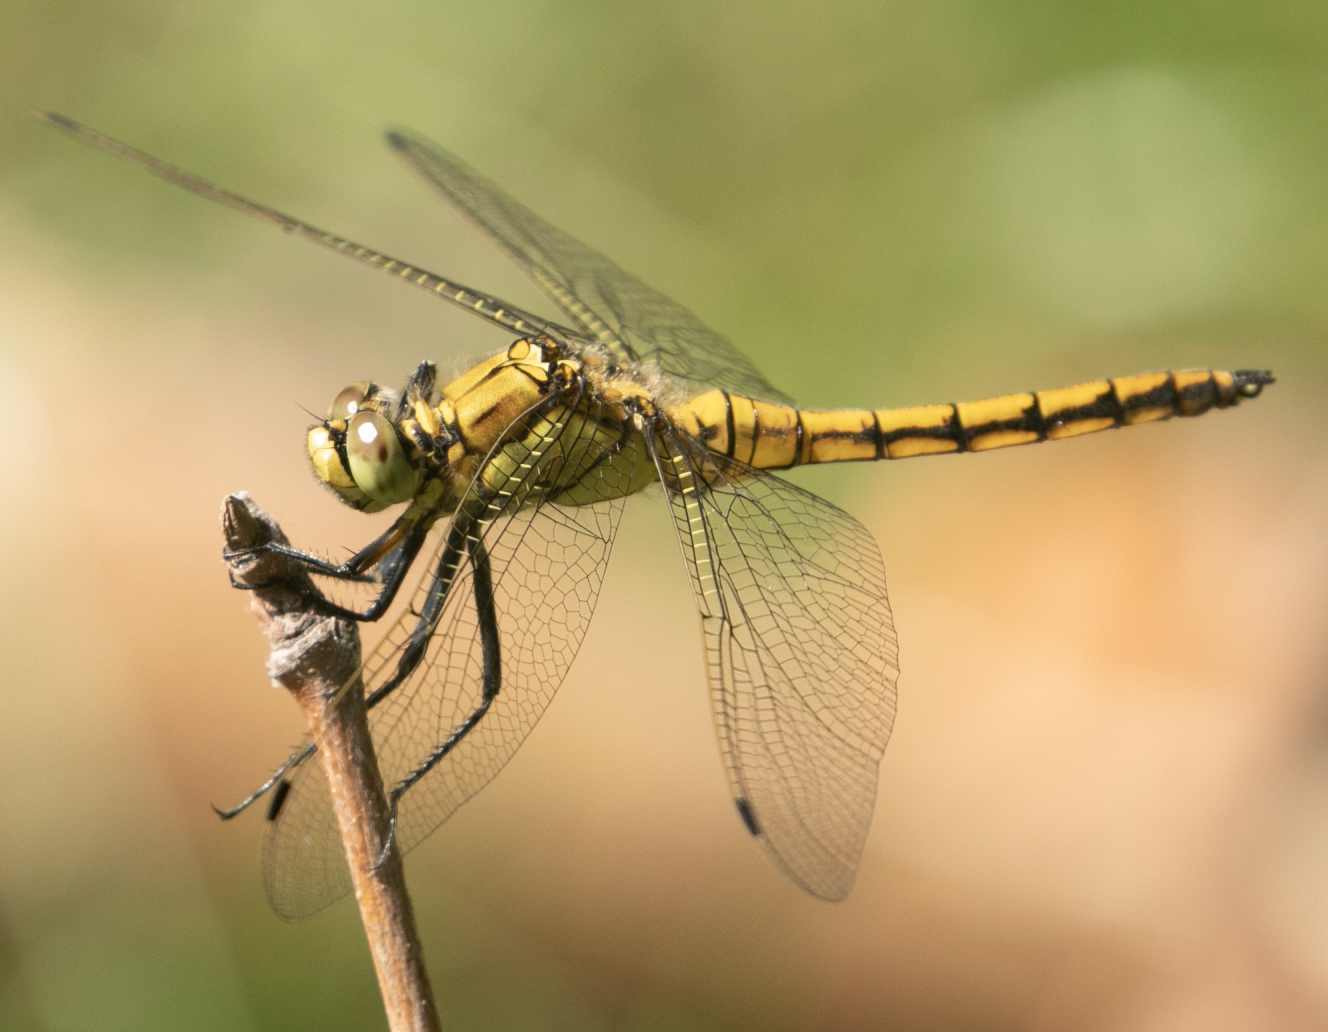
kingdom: Animalia
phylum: Arthropoda
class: Insecta
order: Odonata
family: Libellulidae
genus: Orthetrum
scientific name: Orthetrum cancellatum
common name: Black-tailed skimmer
